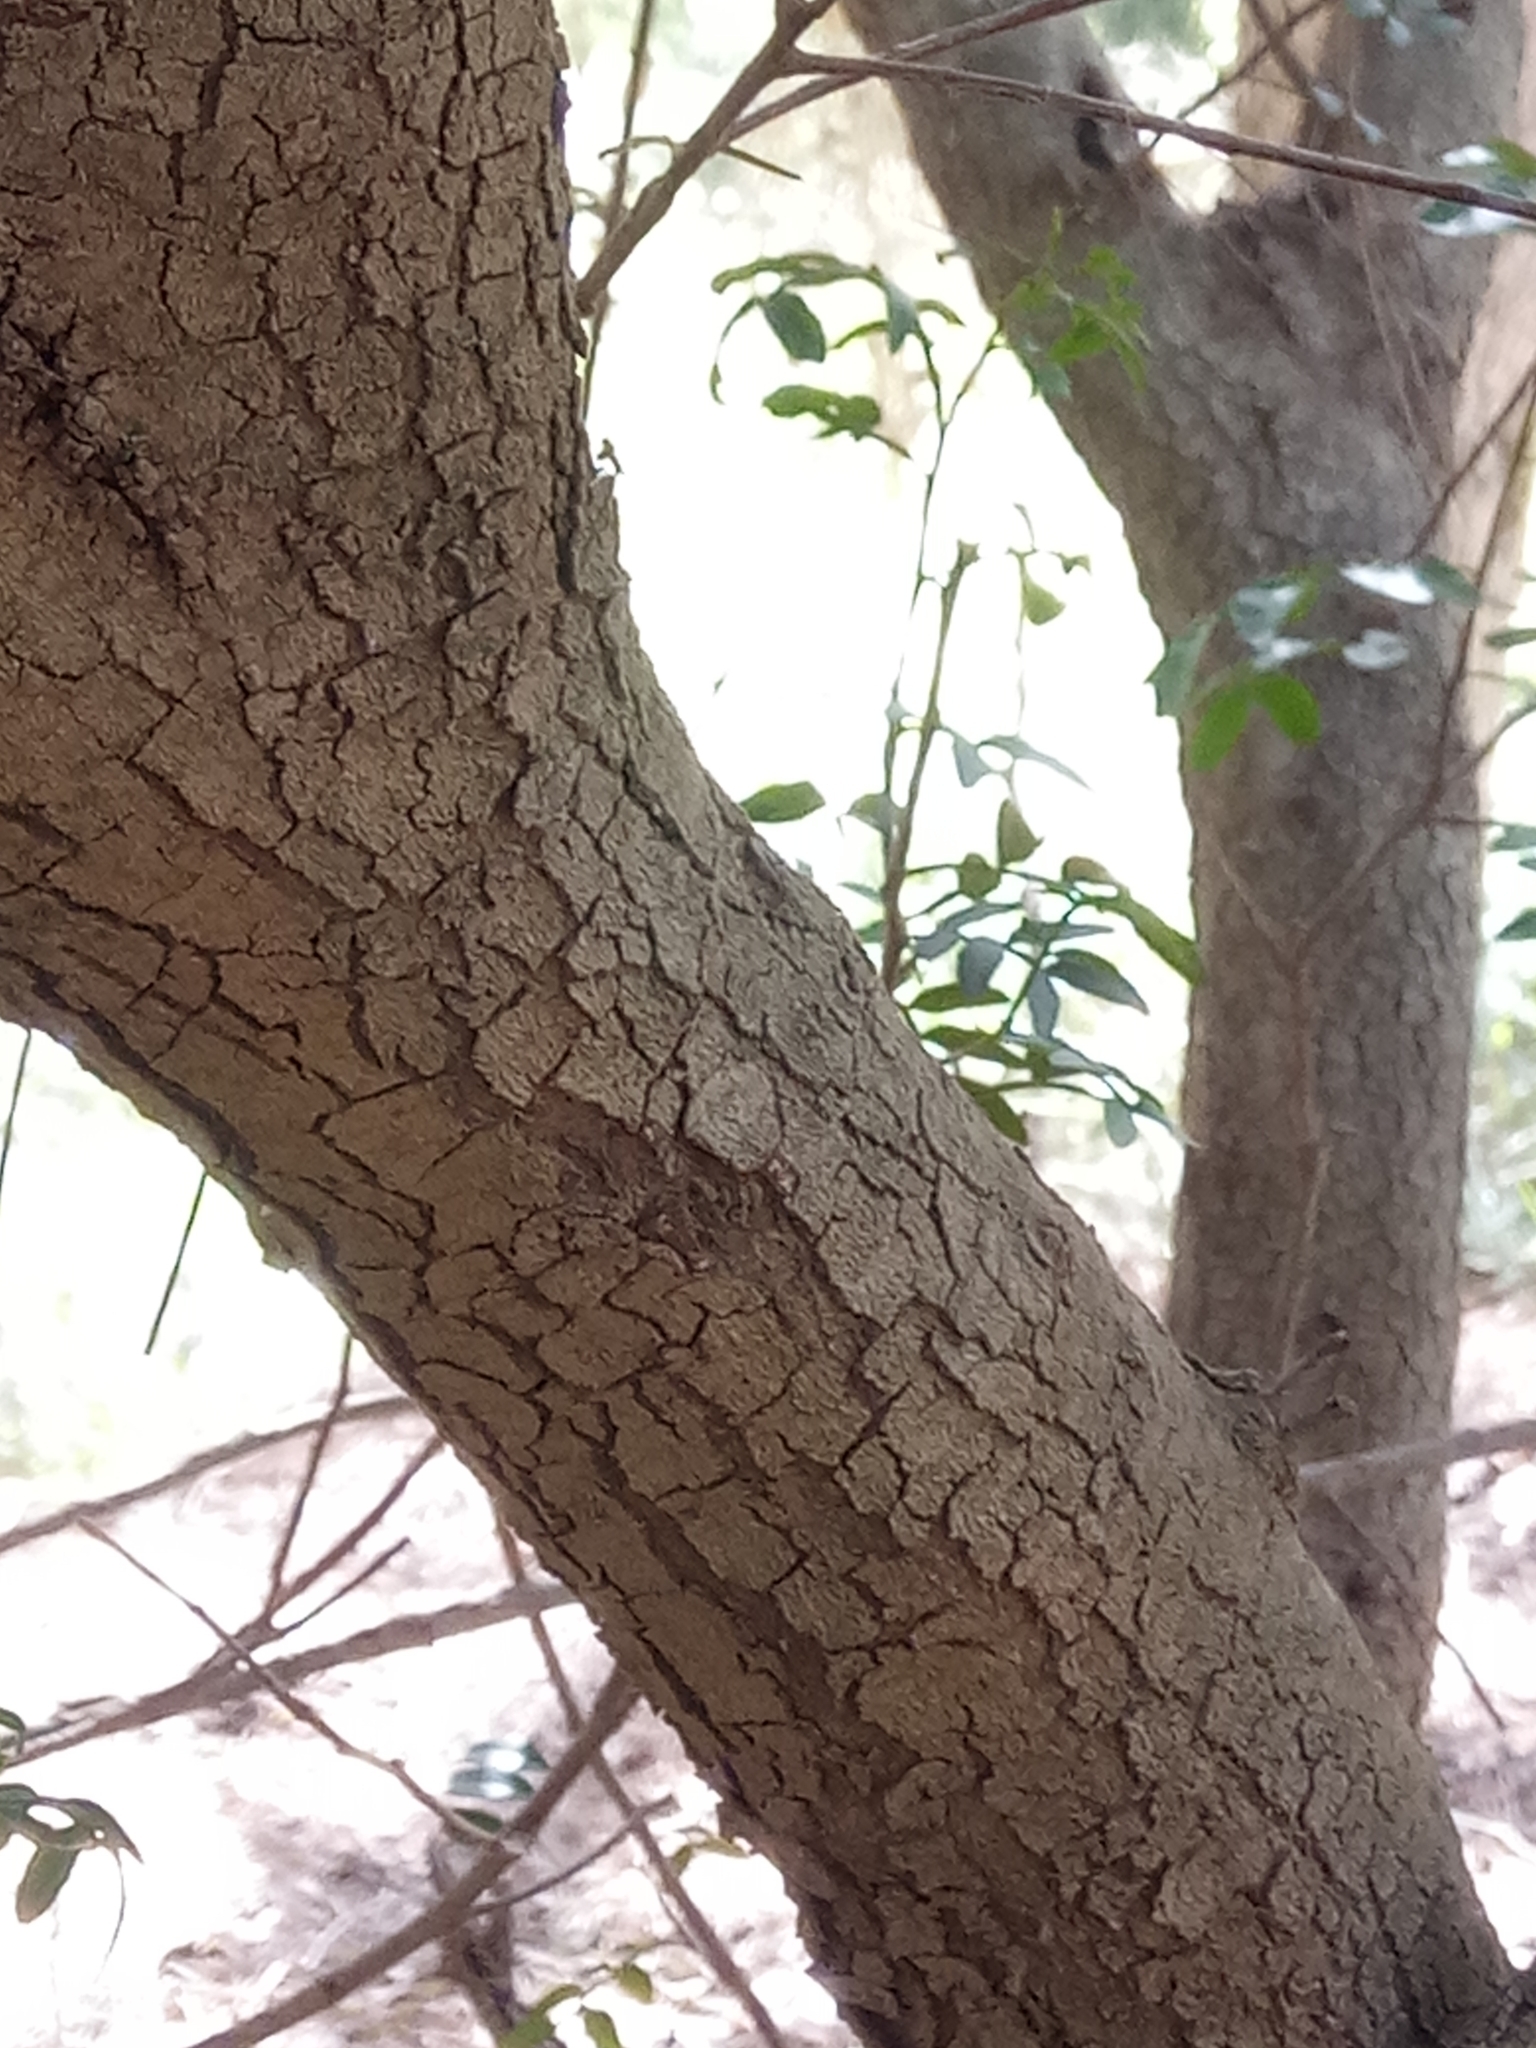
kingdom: Plantae
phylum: Tracheophyta
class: Magnoliopsida
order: Sapindales
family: Anacardiaceae
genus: Pistacia
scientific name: Pistacia lentiscus
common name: Lentisk
